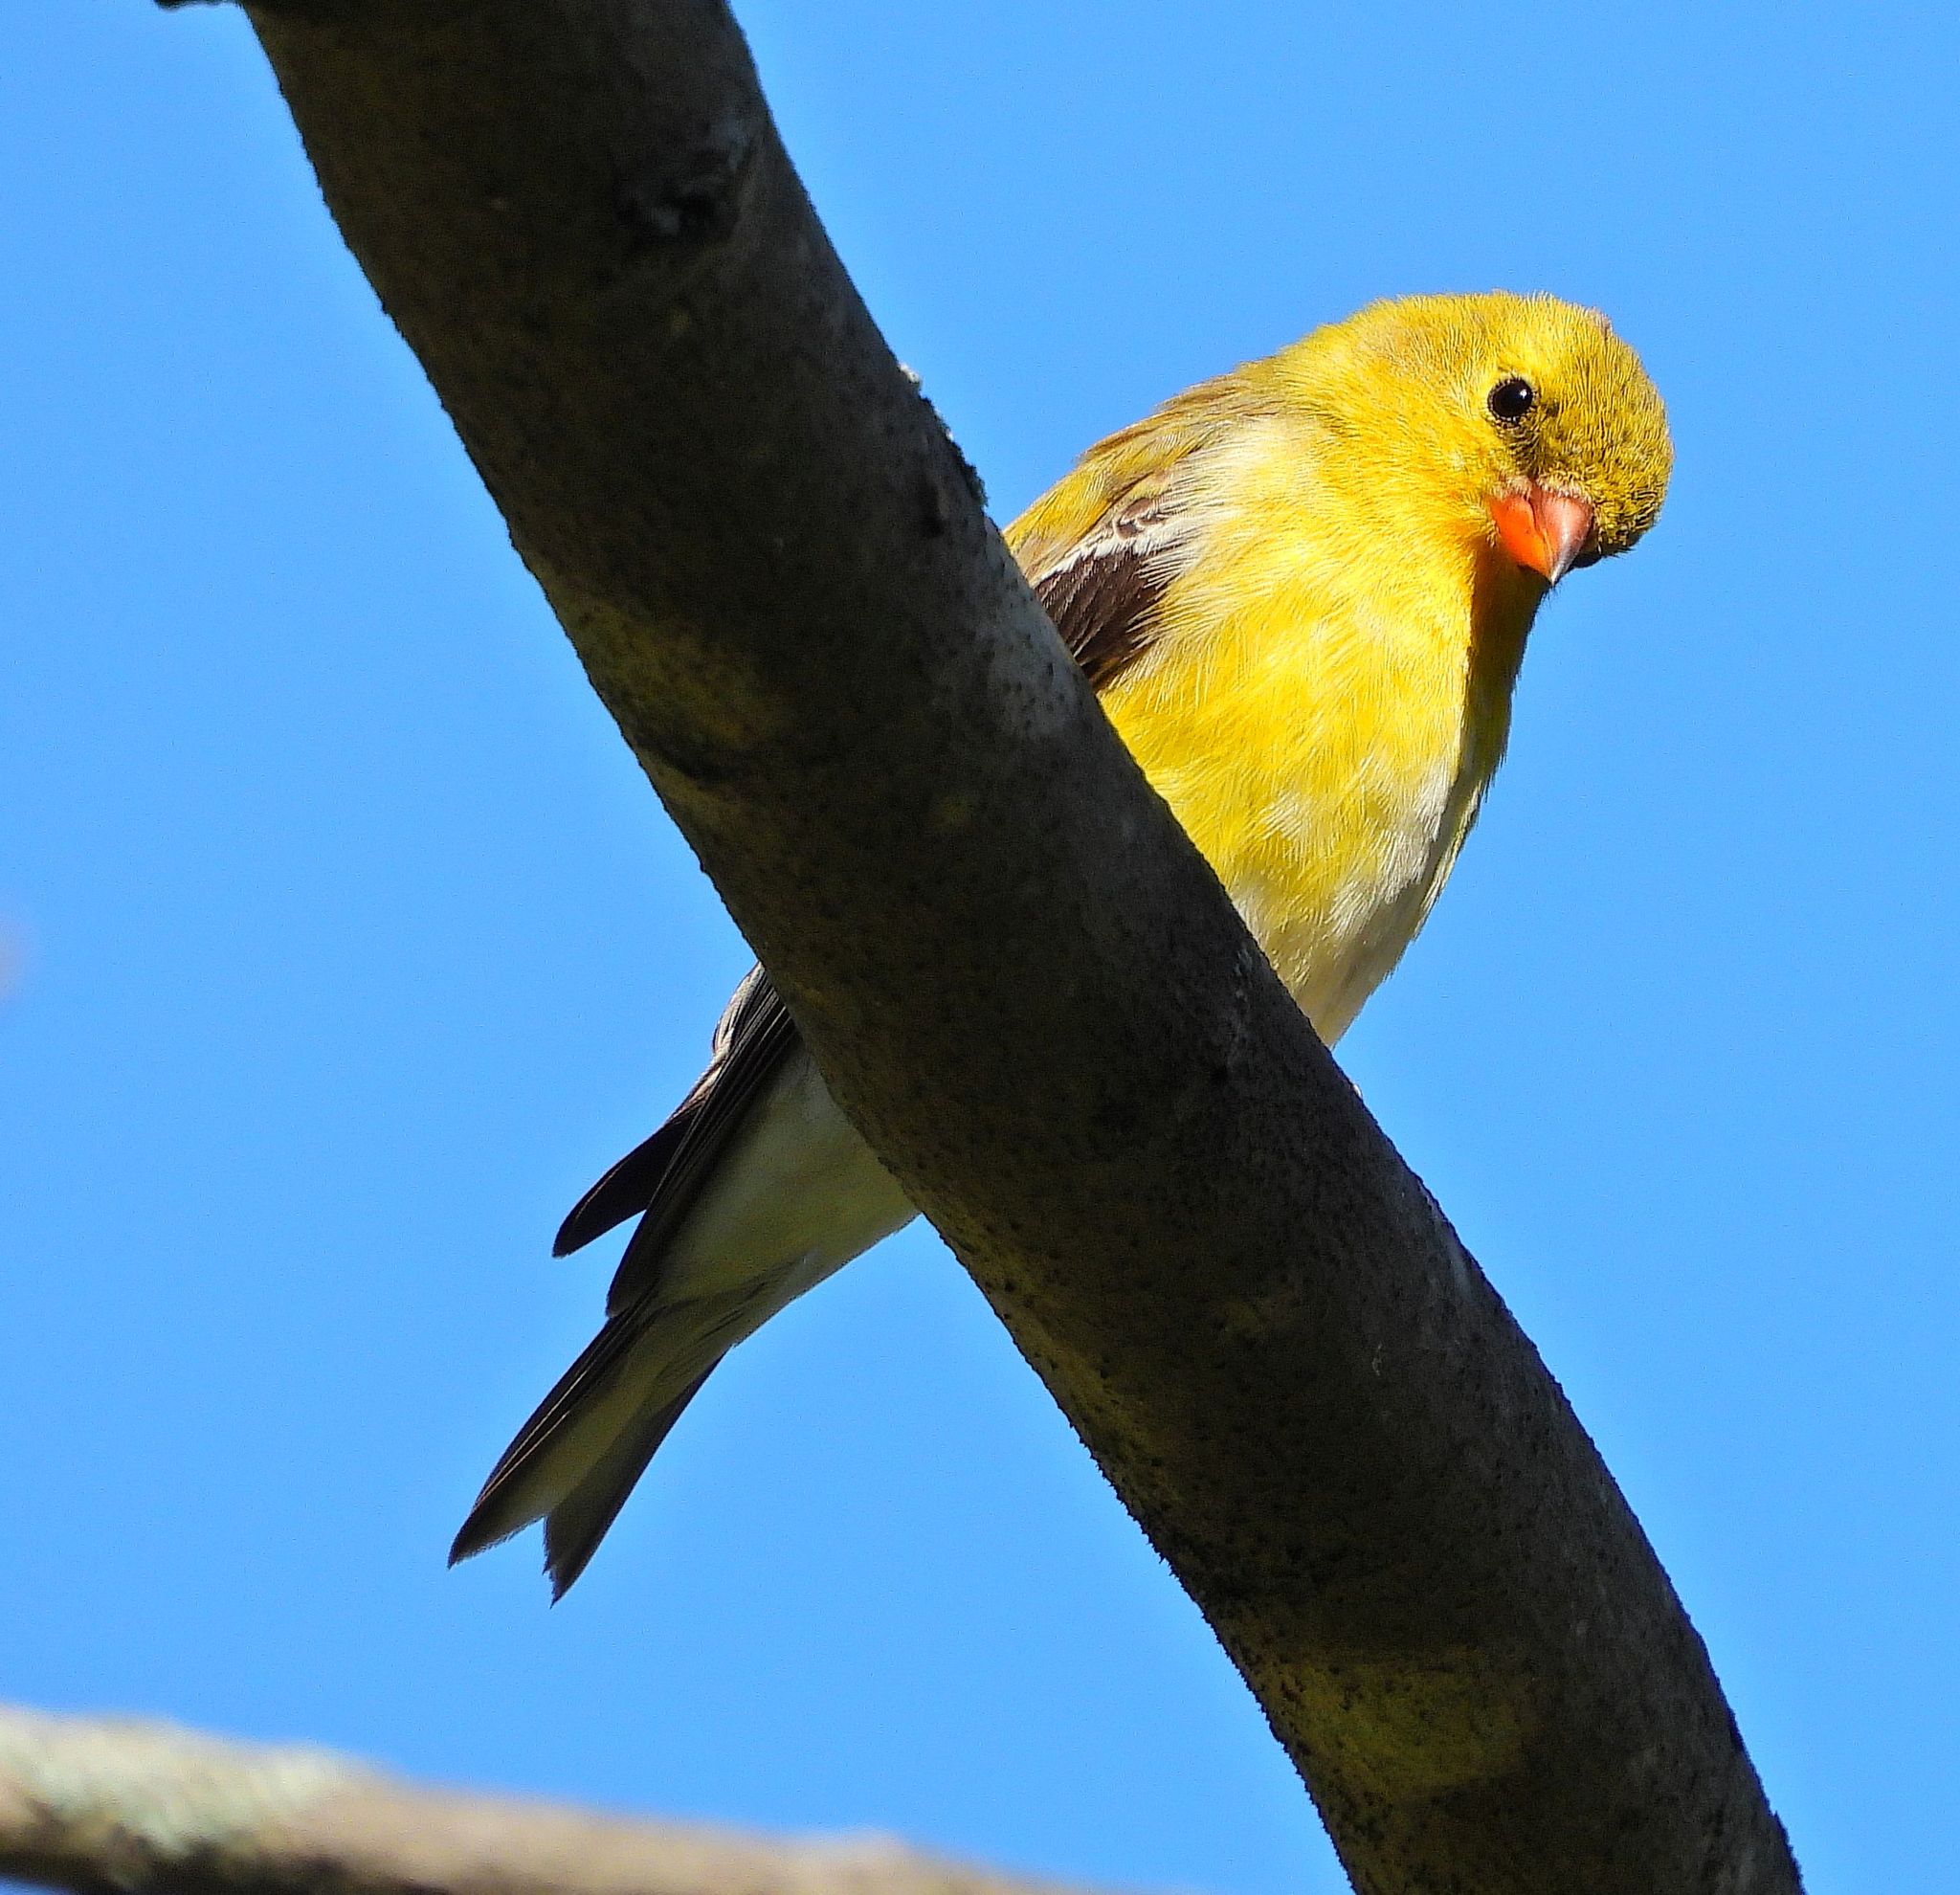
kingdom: Animalia
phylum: Chordata
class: Aves
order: Passeriformes
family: Fringillidae
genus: Spinus
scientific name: Spinus tristis
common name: American goldfinch
